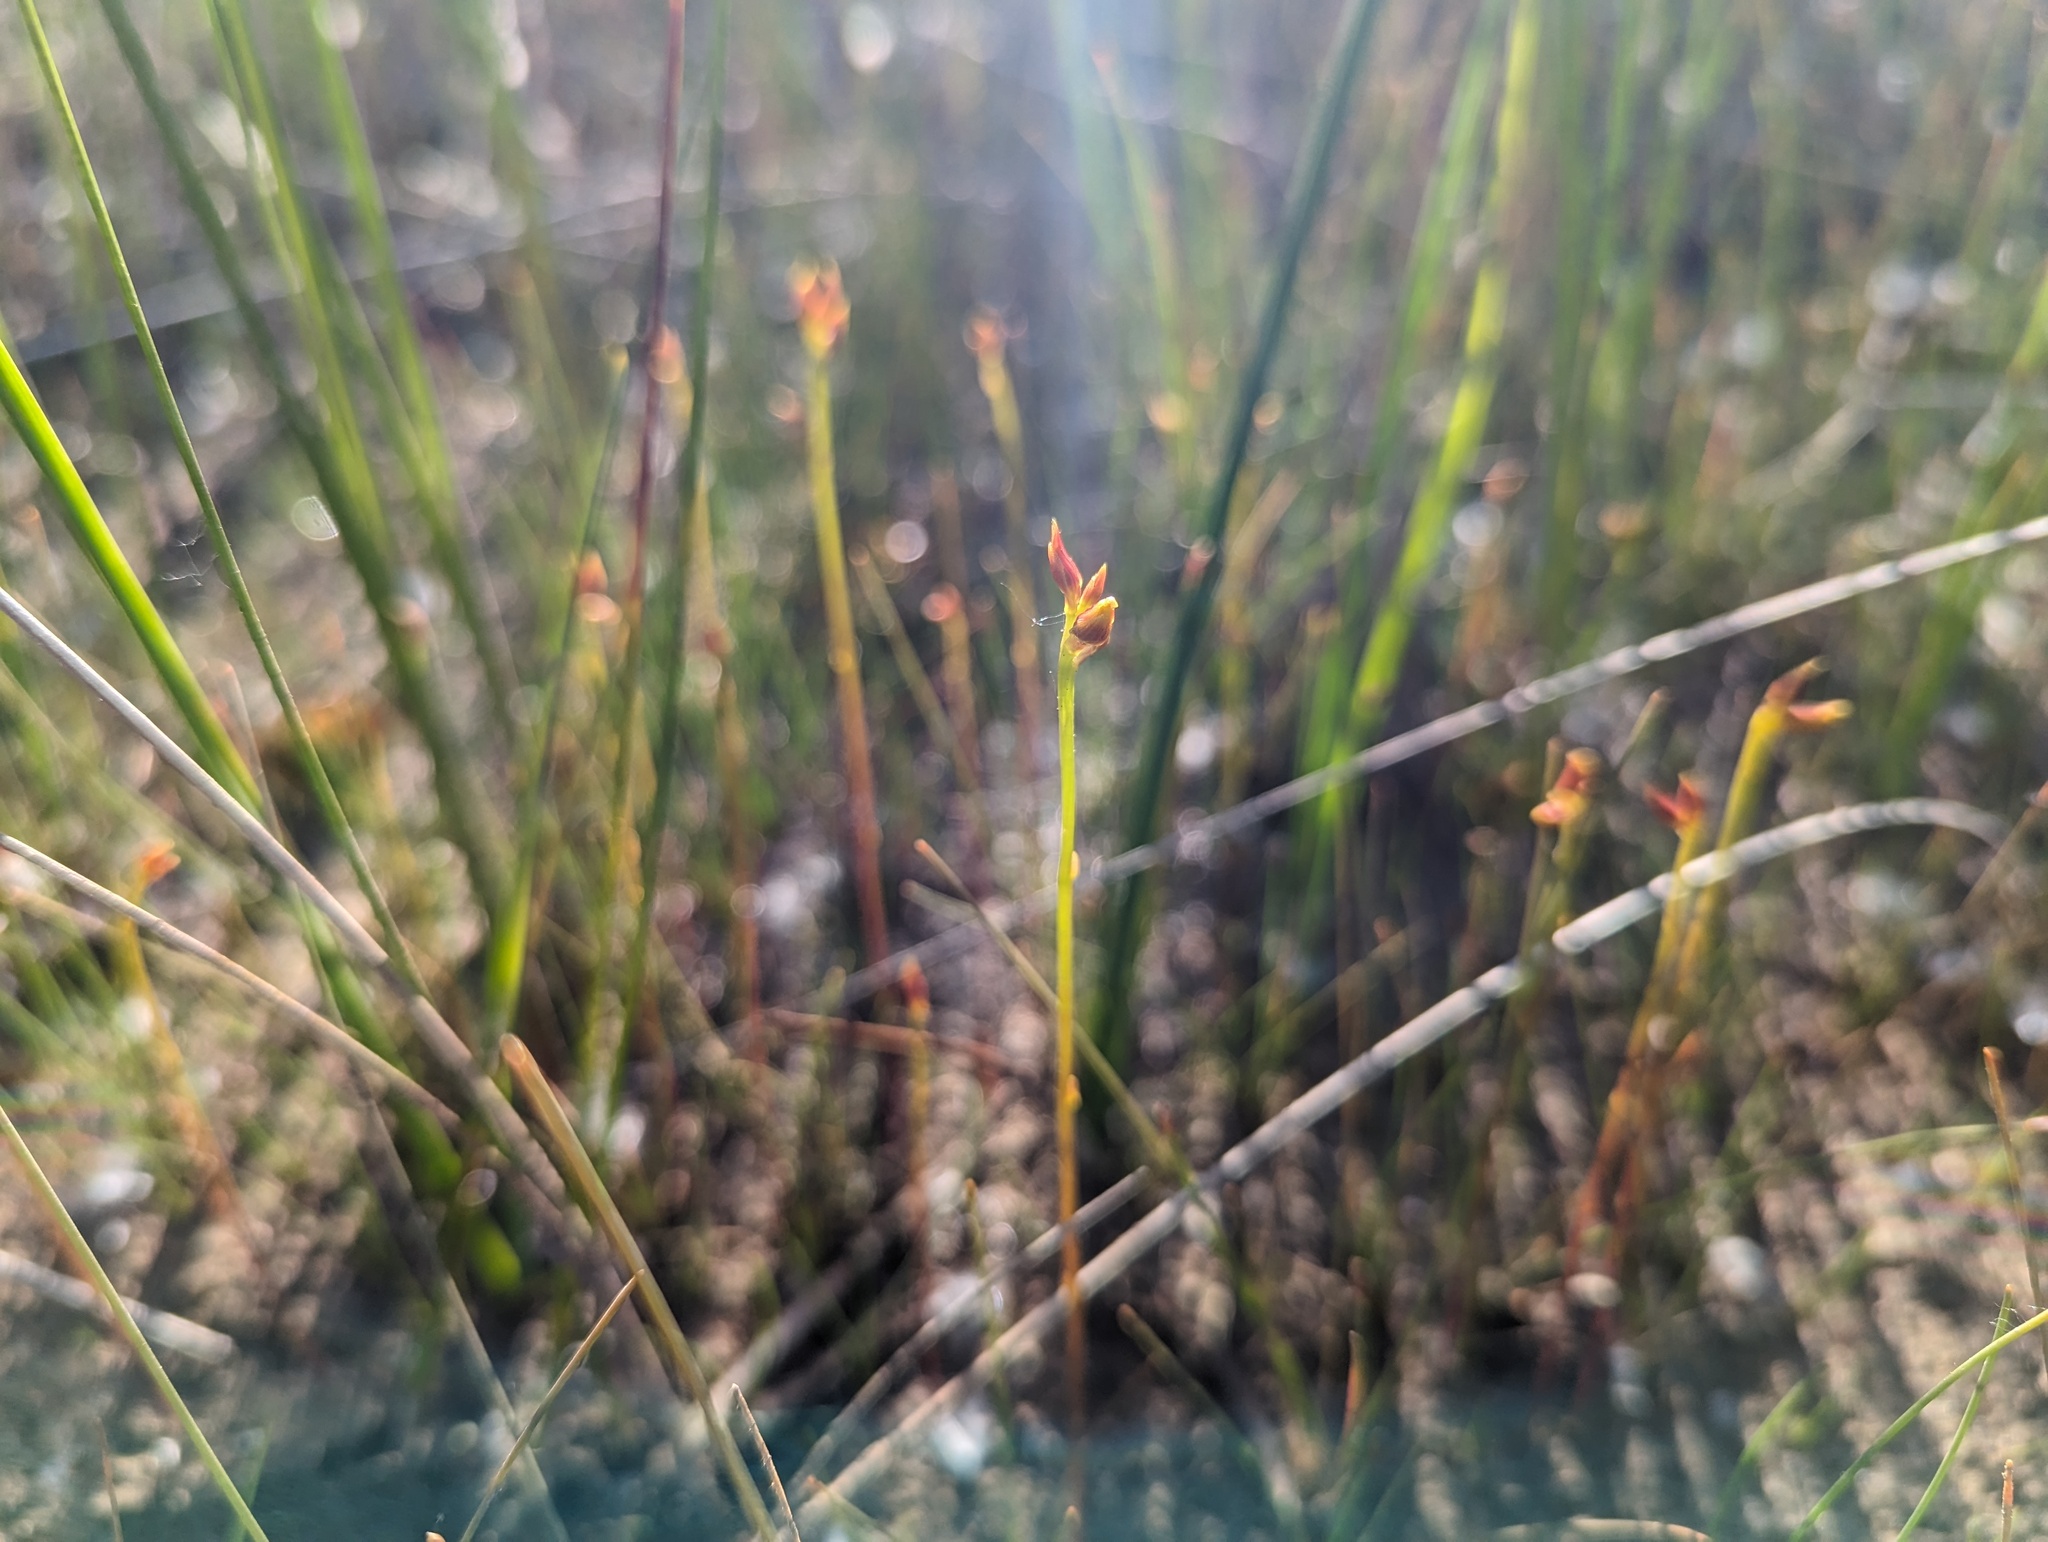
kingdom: Plantae
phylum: Tracheophyta
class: Magnoliopsida
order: Lamiales
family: Lentibulariaceae
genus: Utricularia
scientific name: Utricularia cornuta
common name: Horned bladderwort
